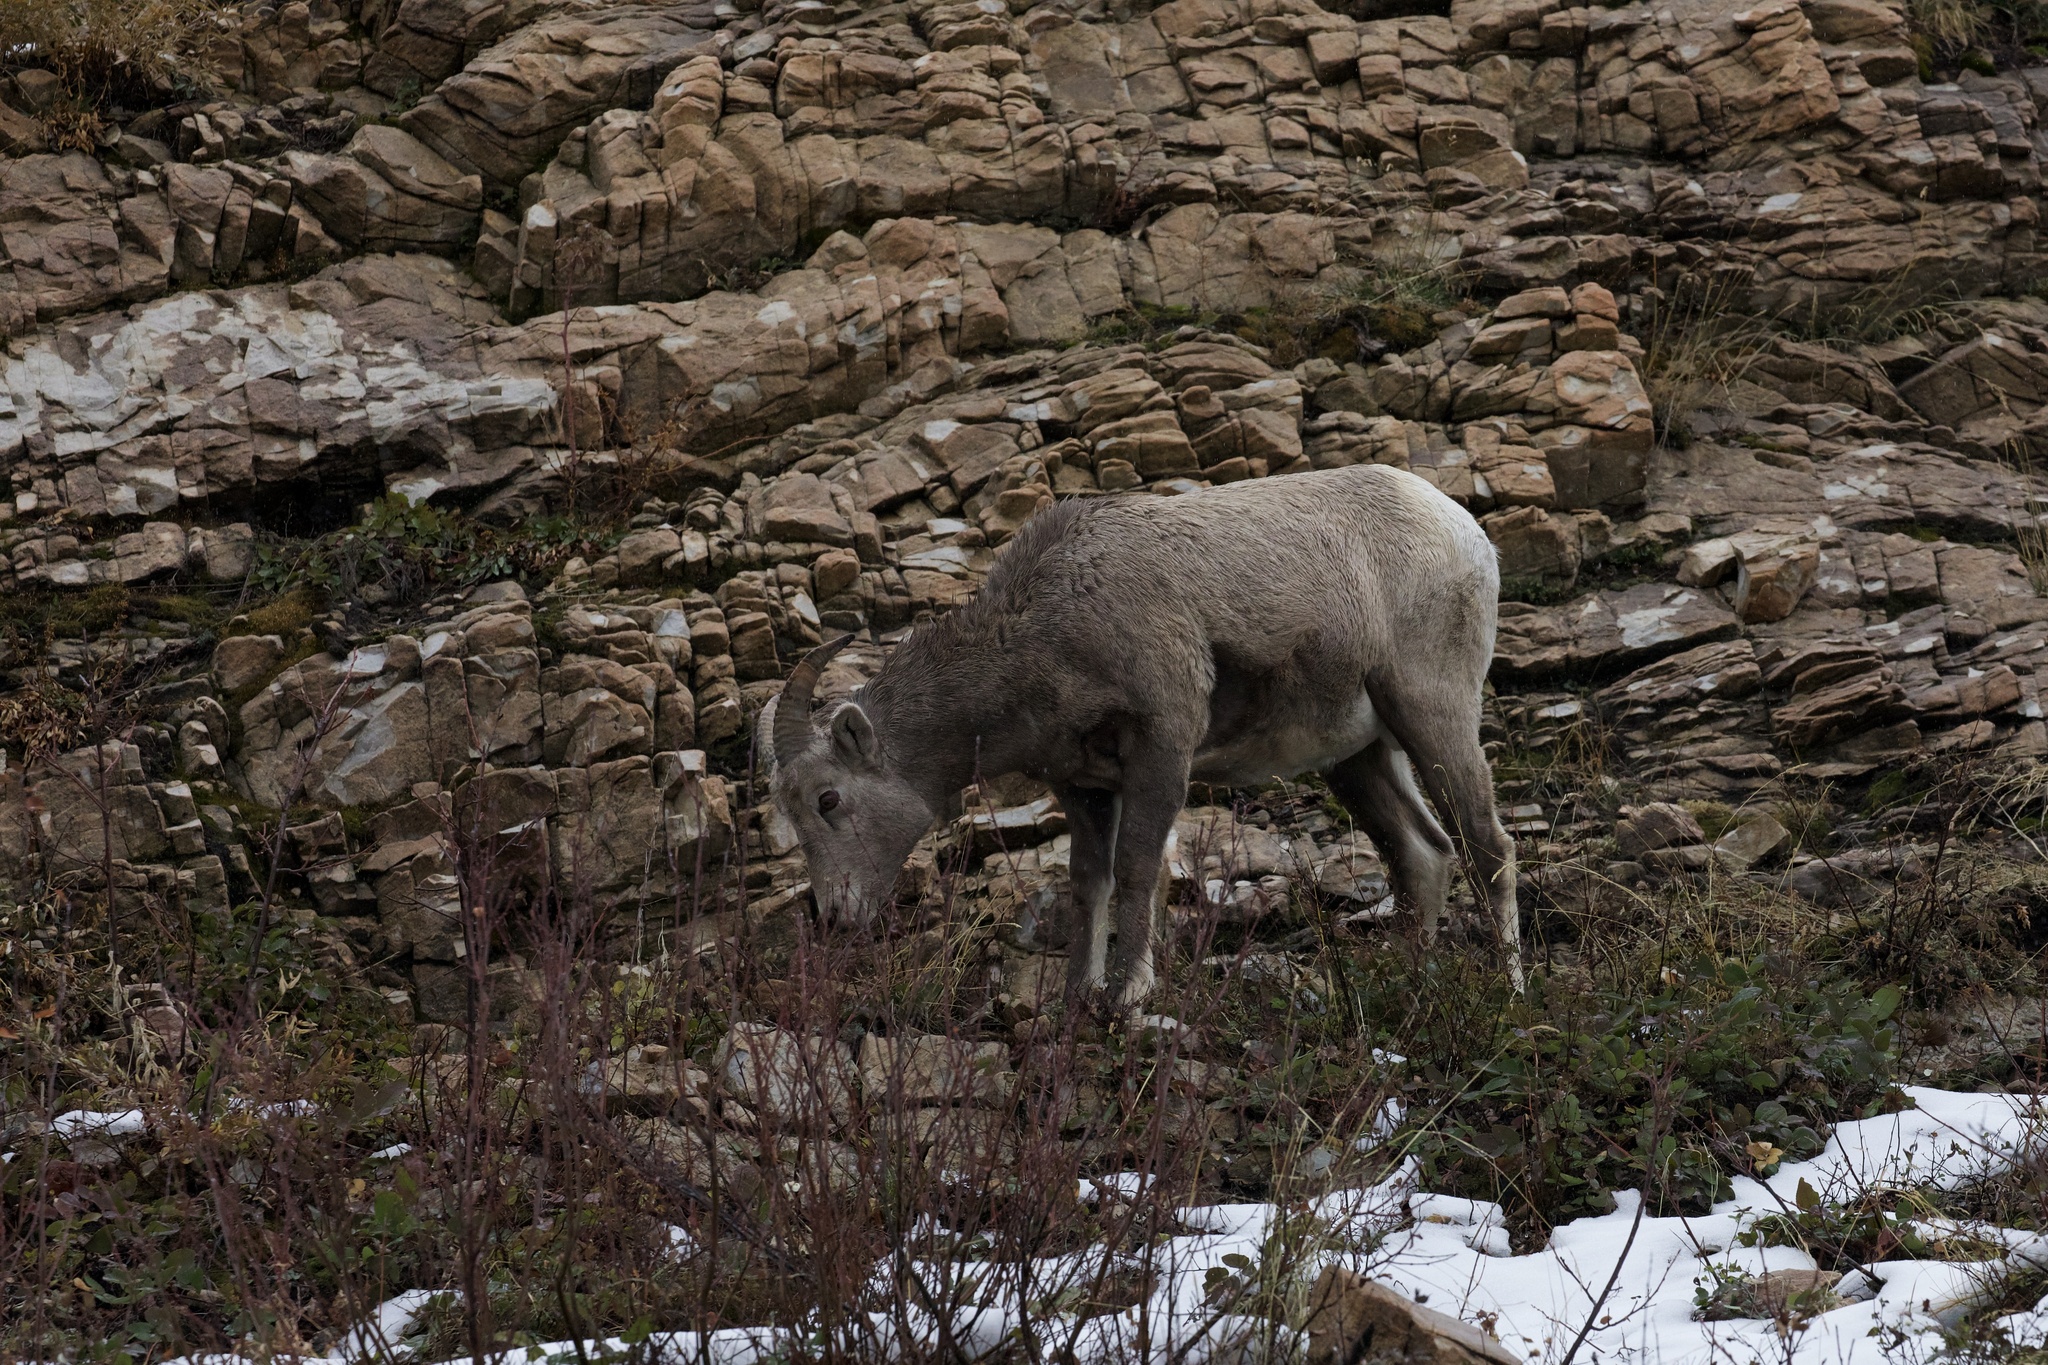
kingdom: Animalia
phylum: Chordata
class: Mammalia
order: Artiodactyla
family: Bovidae
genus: Ovis
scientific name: Ovis canadensis
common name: Bighorn sheep
